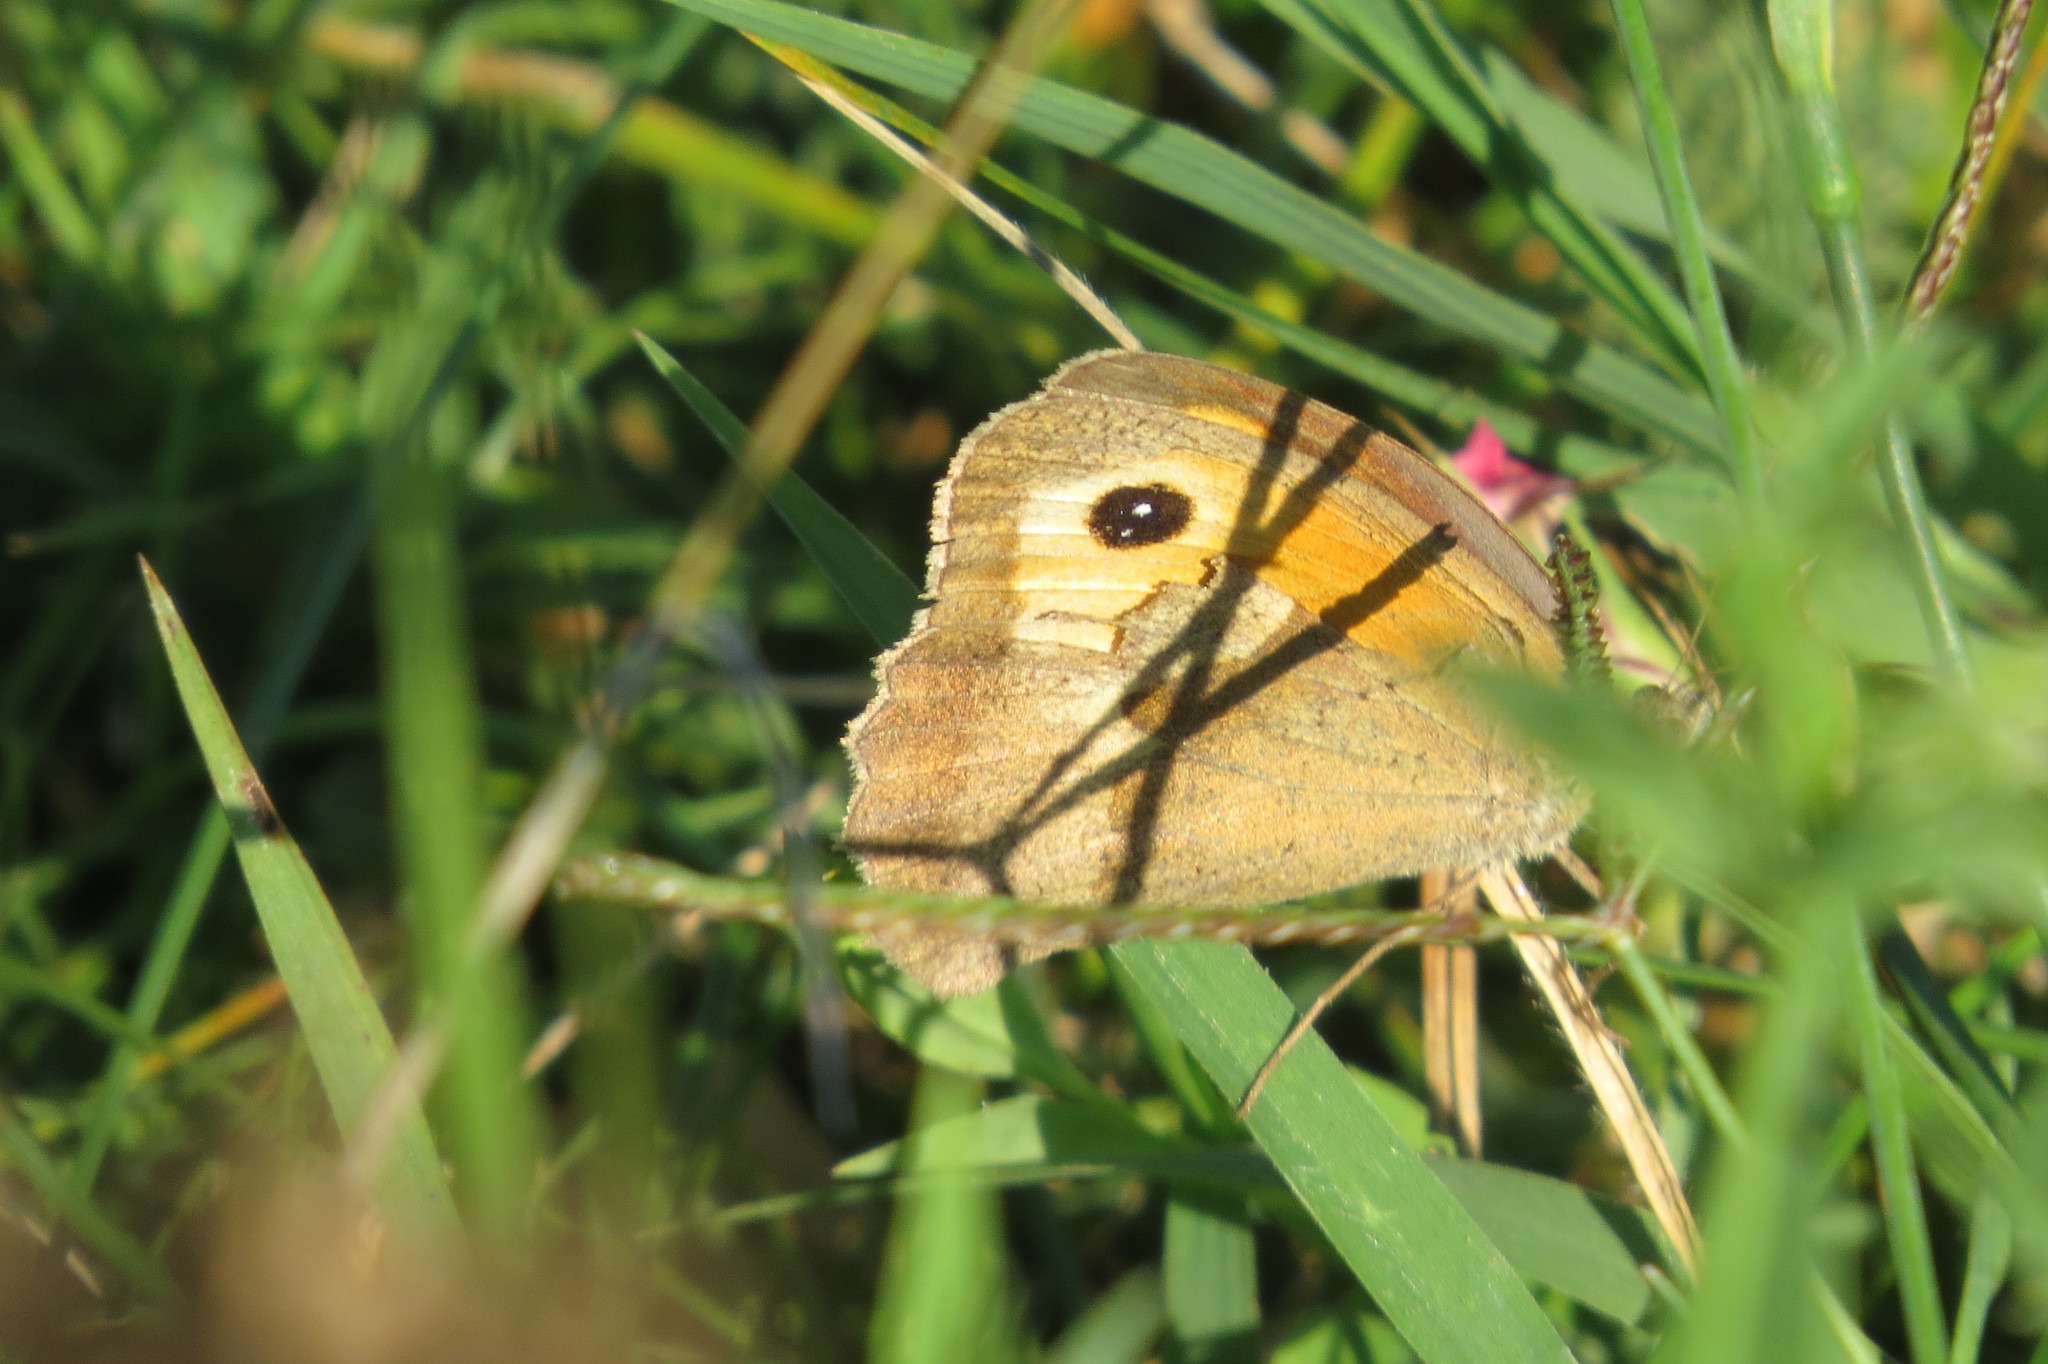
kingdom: Animalia
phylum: Arthropoda
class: Insecta
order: Lepidoptera
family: Nymphalidae
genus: Maniola
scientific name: Maniola jurtina
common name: Meadow brown
